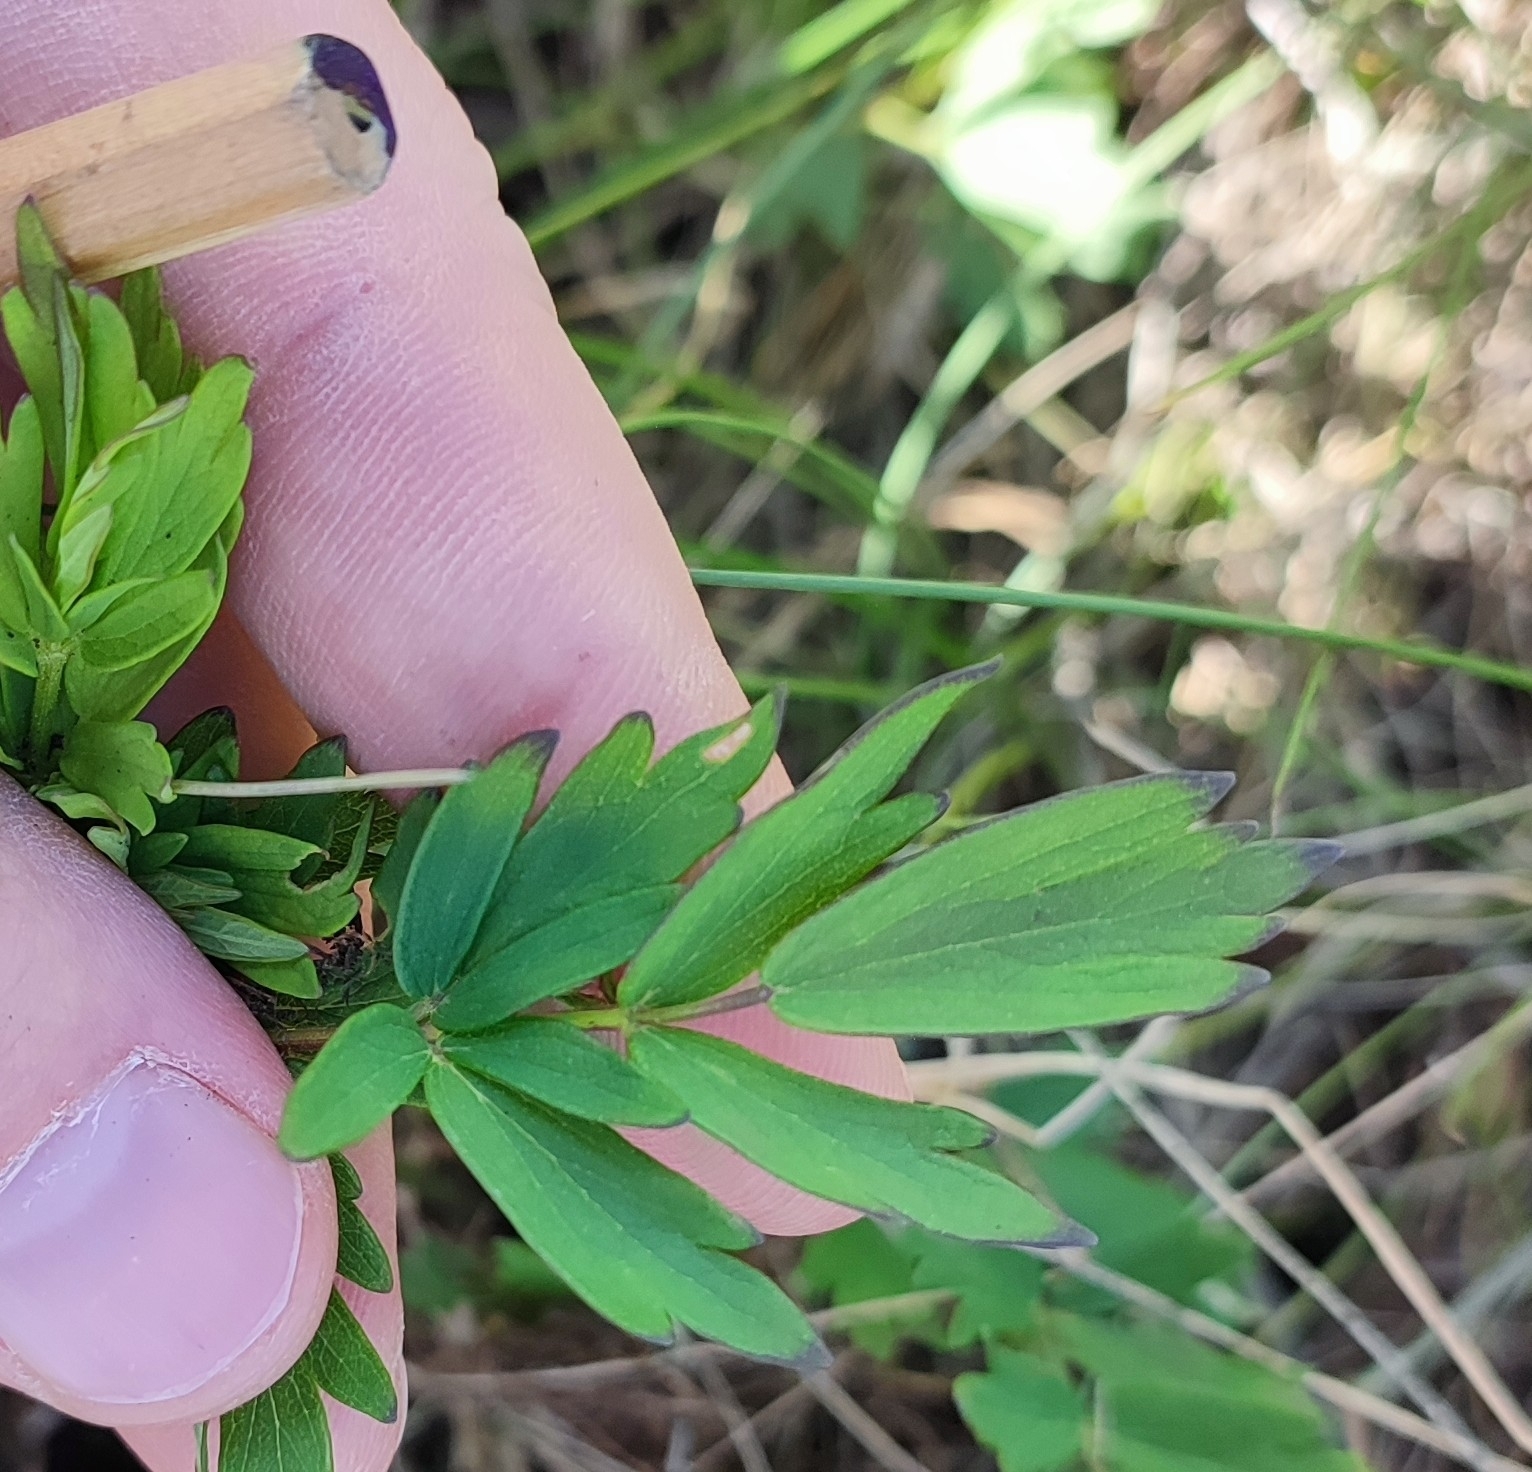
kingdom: Plantae
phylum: Tracheophyta
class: Magnoliopsida
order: Ranunculales
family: Ranunculaceae
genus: Thalictrum
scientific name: Thalictrum simplex
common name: Small meadow-rue
